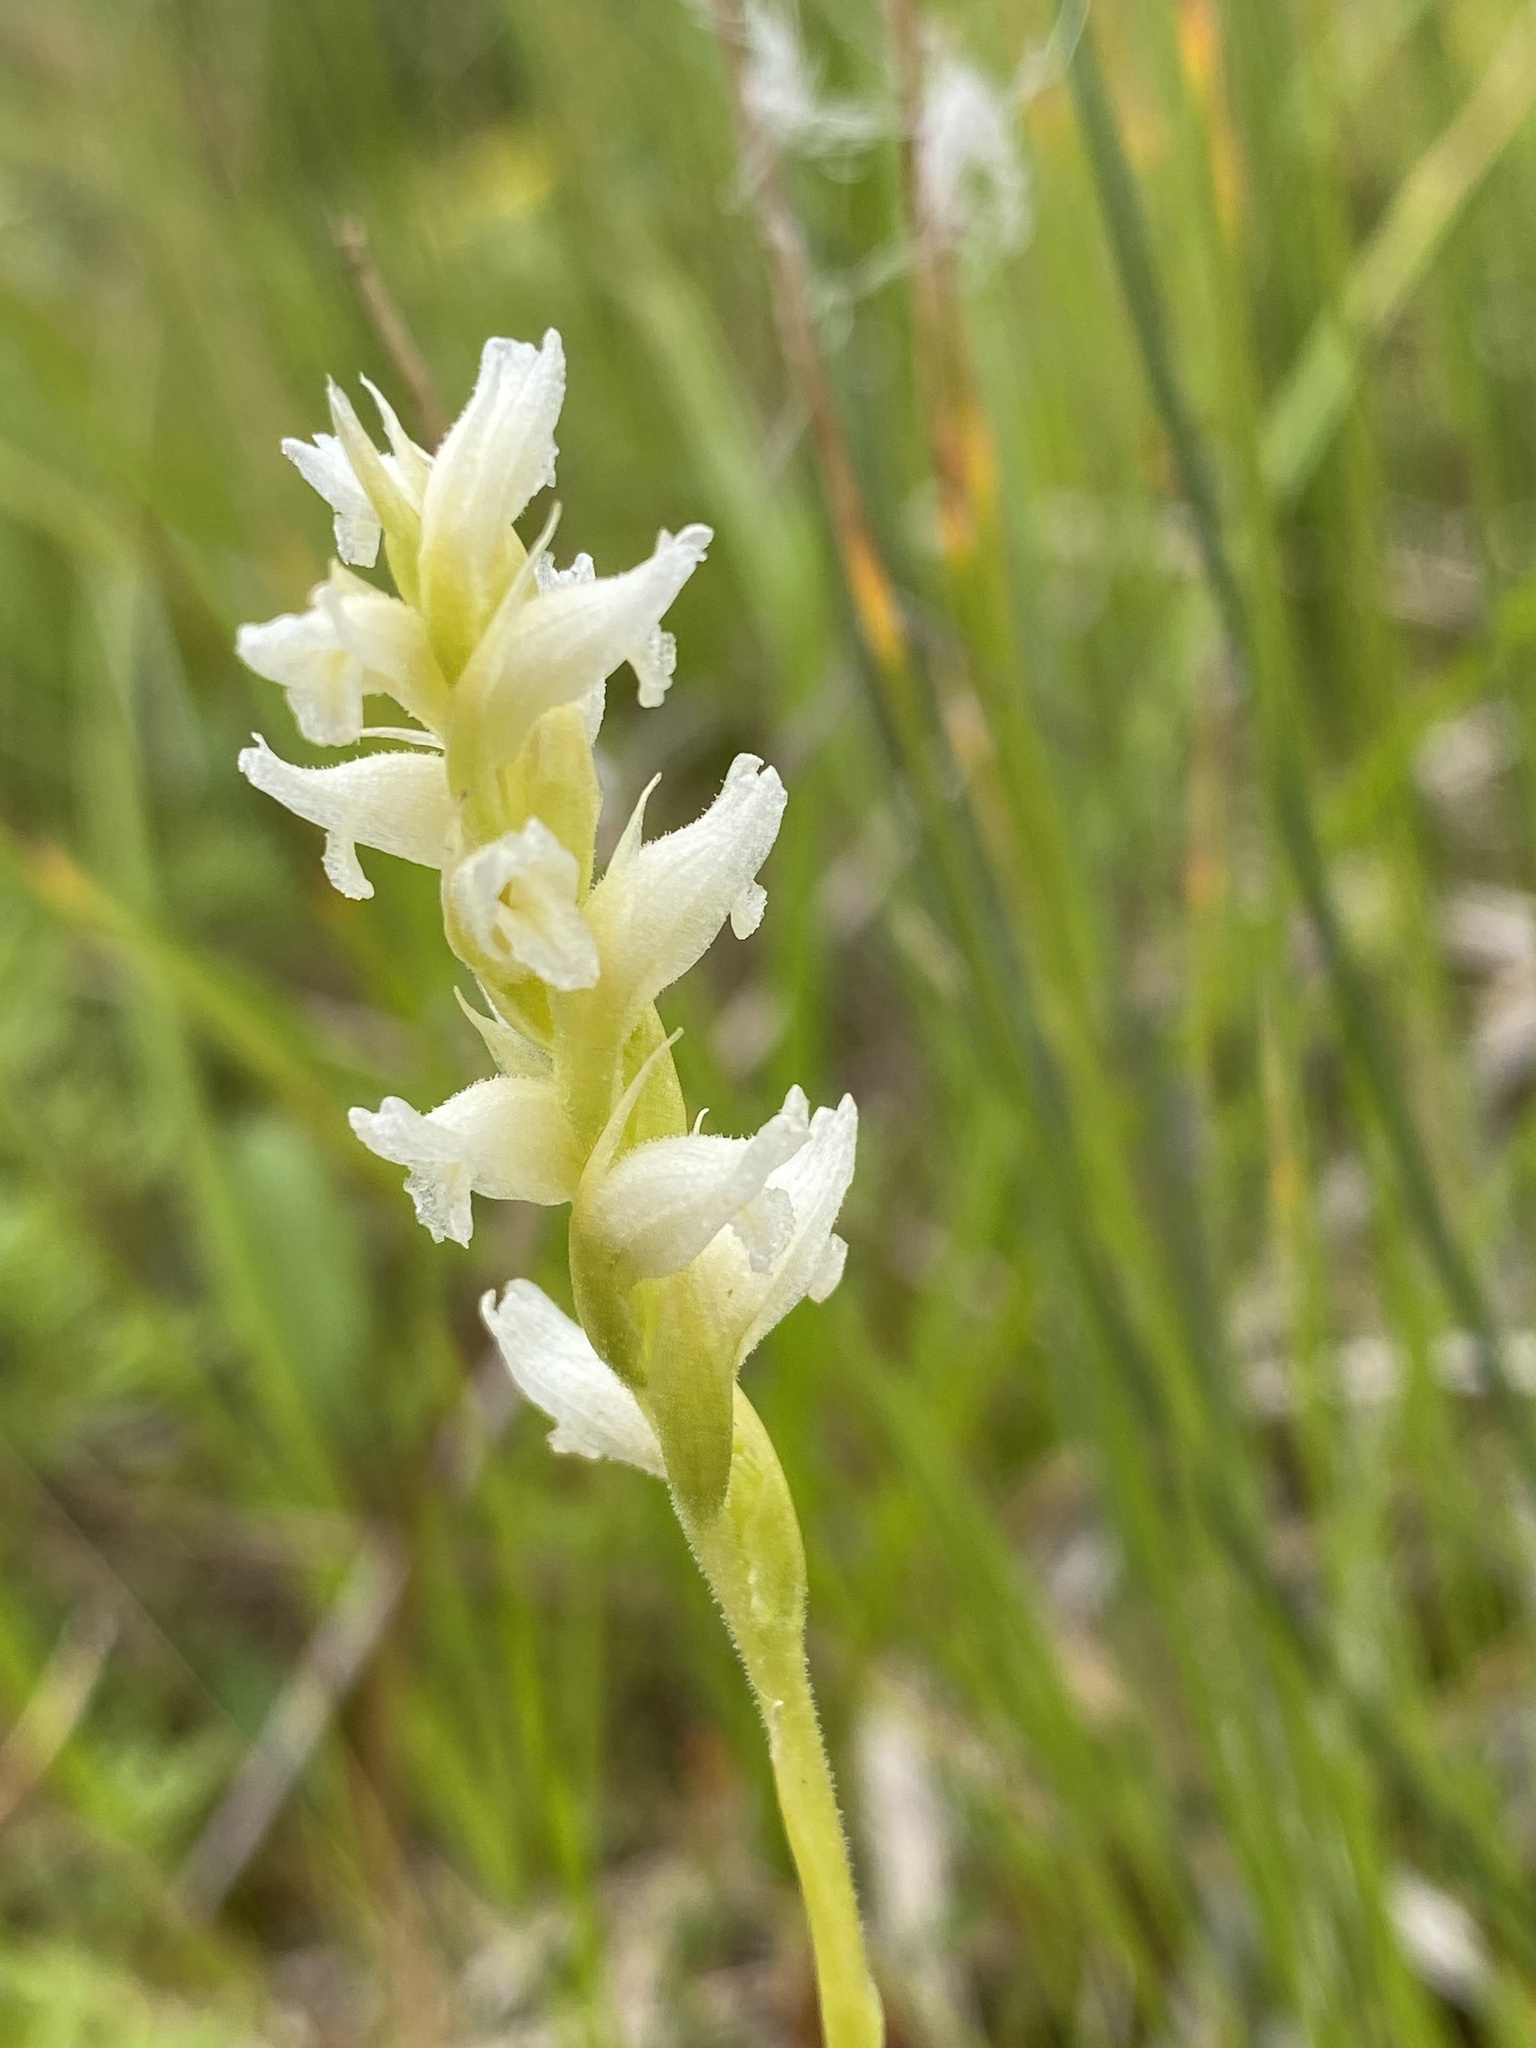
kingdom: Plantae
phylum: Tracheophyta
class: Liliopsida
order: Asparagales
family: Orchidaceae
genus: Spiranthes
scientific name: Spiranthes romanzoffiana
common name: Irish lady's-tresses
